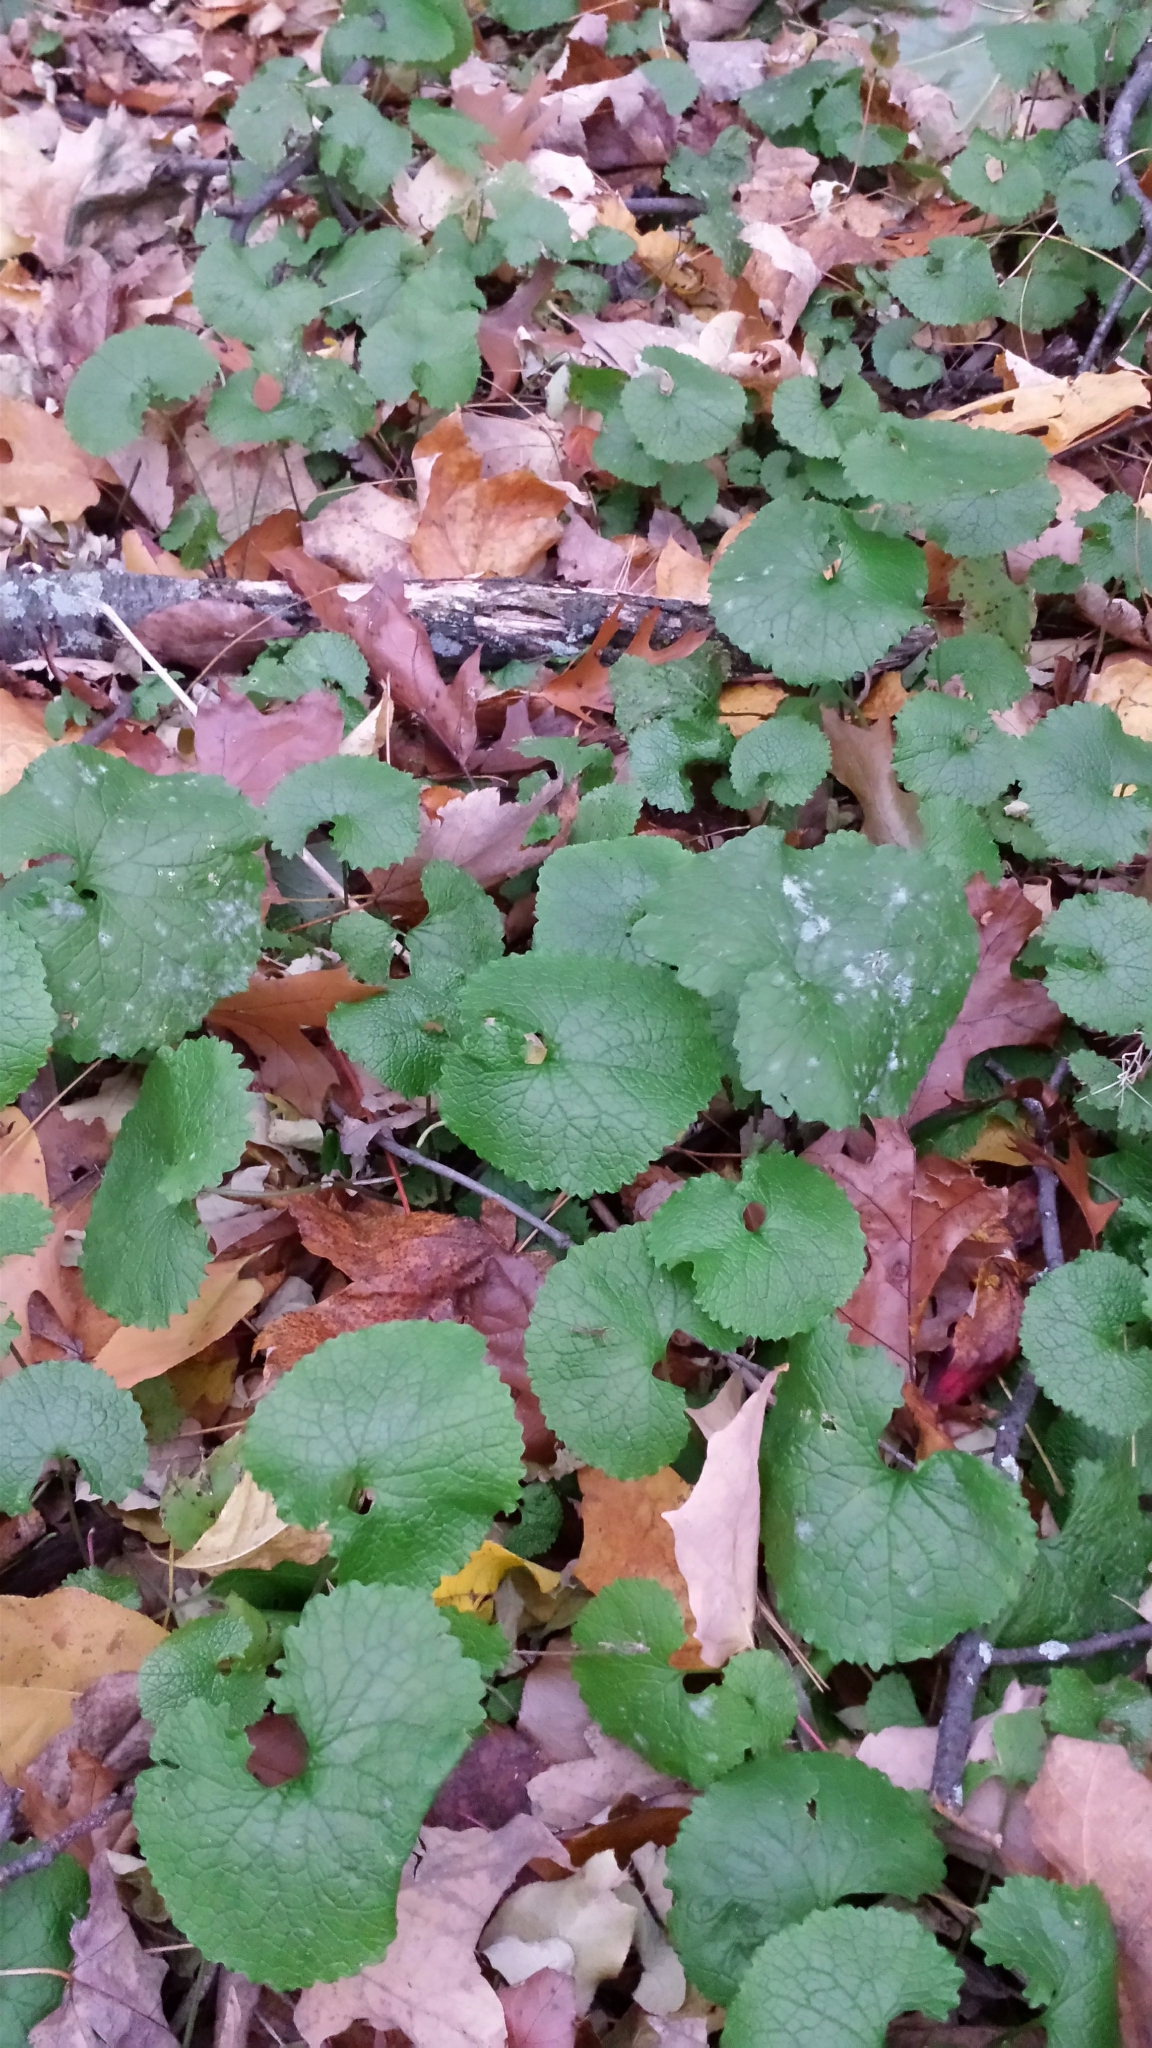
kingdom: Plantae
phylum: Tracheophyta
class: Magnoliopsida
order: Brassicales
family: Brassicaceae
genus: Alliaria
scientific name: Alliaria petiolata
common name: Garlic mustard
